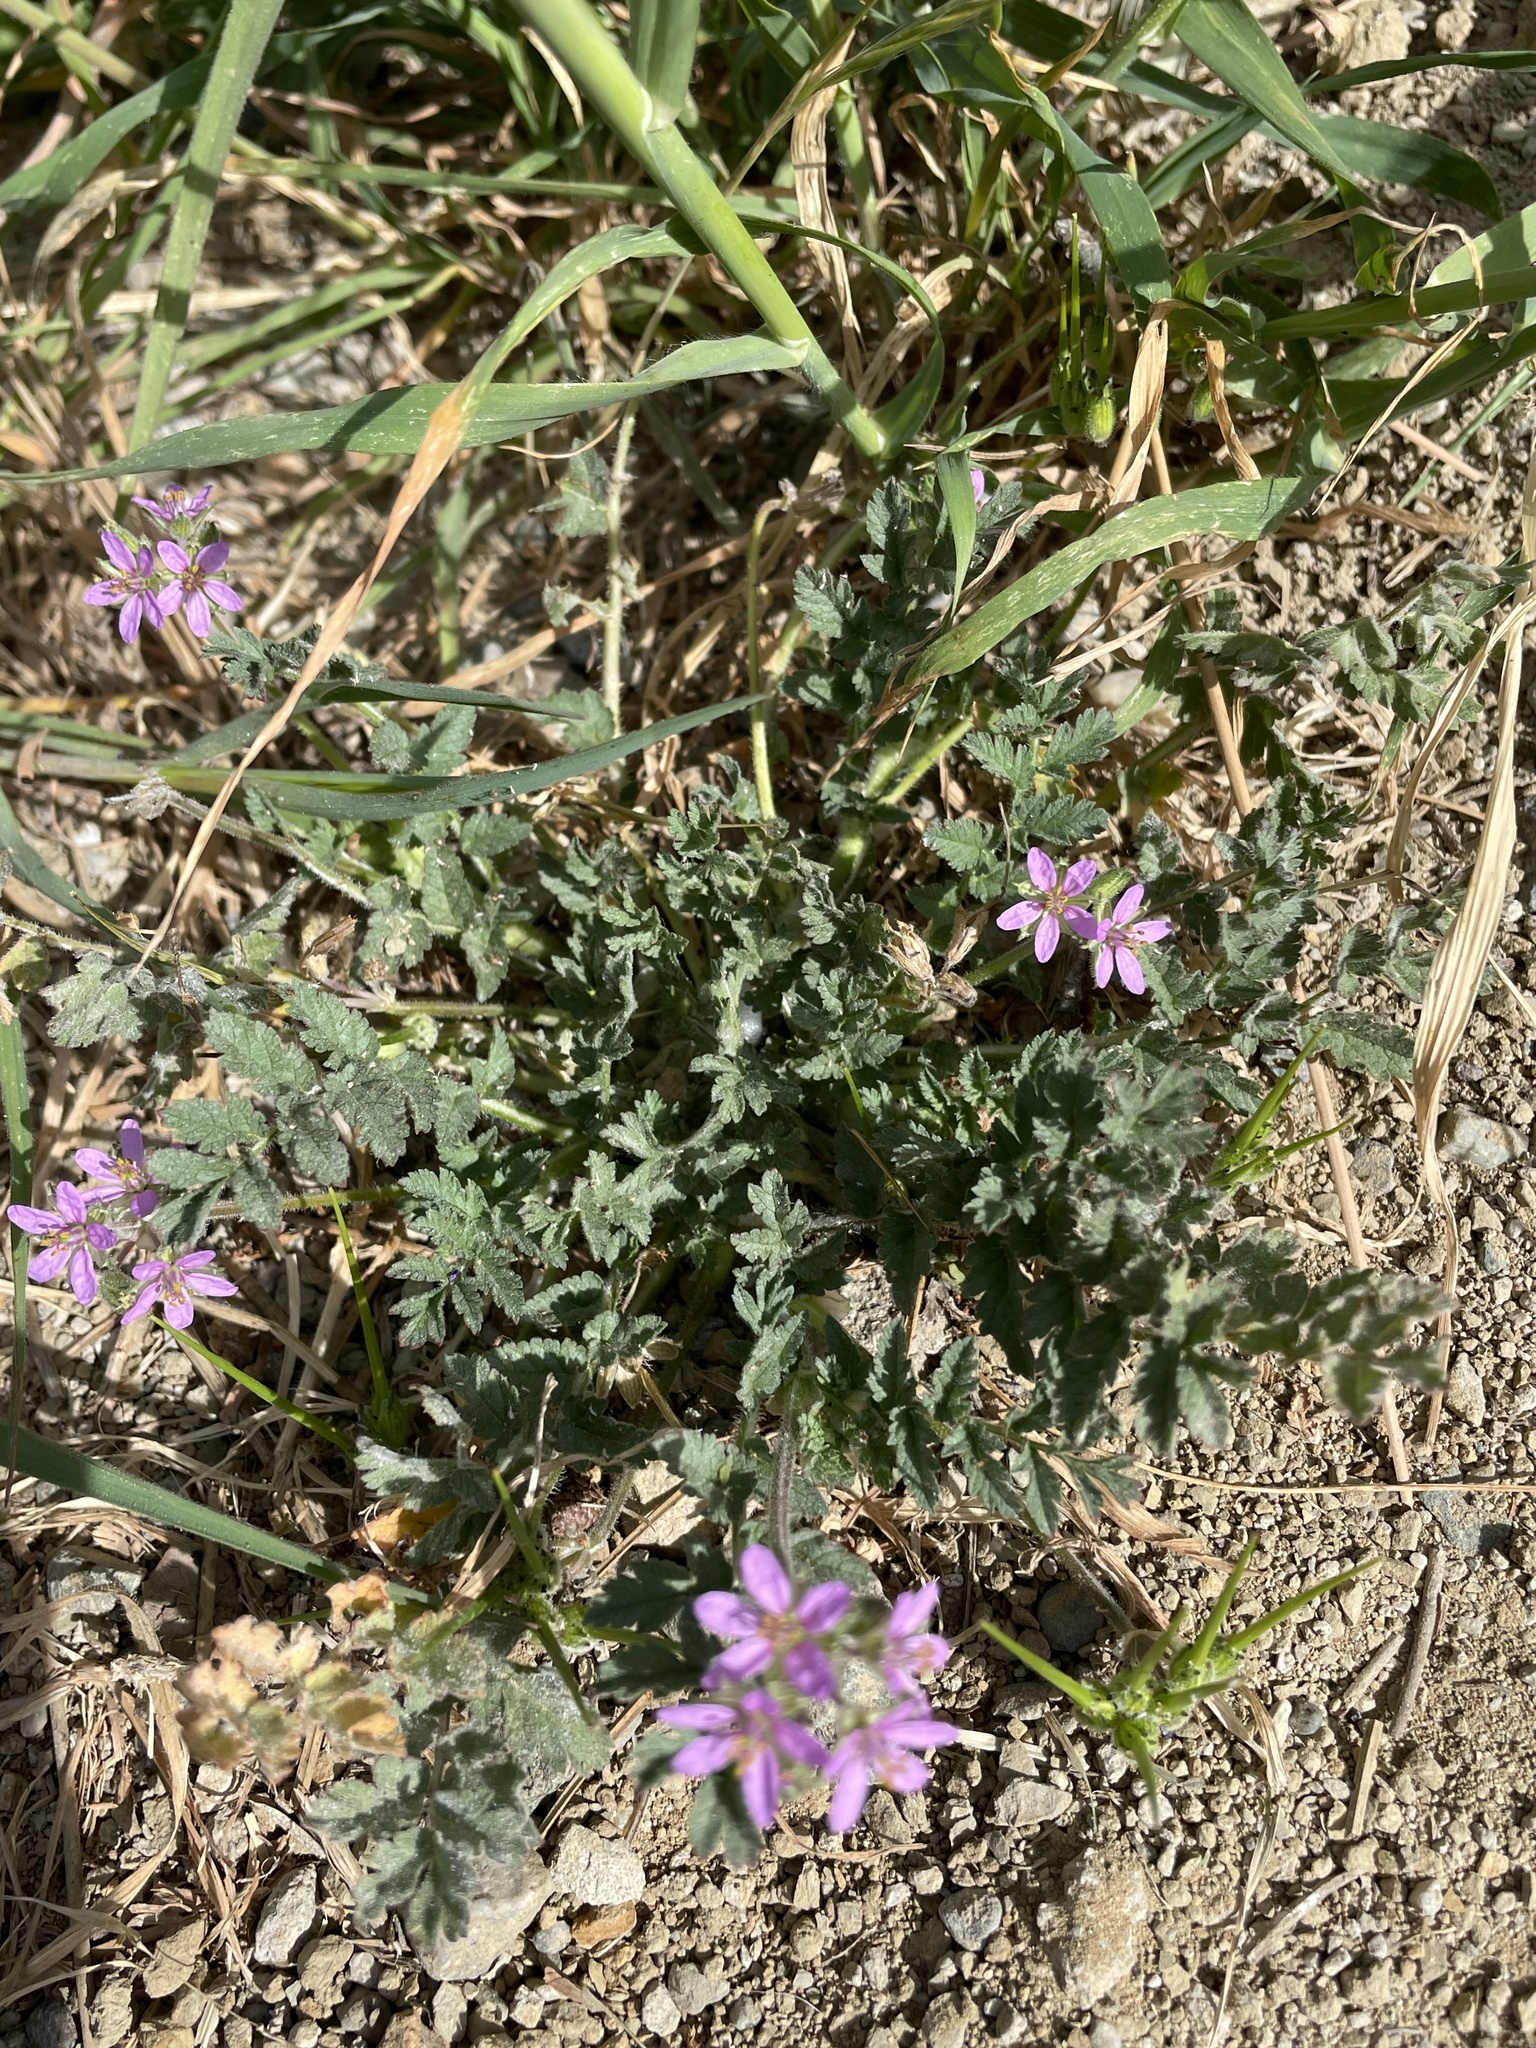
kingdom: Plantae
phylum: Tracheophyta
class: Magnoliopsida
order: Geraniales
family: Geraniaceae
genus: Erodium
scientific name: Erodium moschatum
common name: Musk stork's-bill
